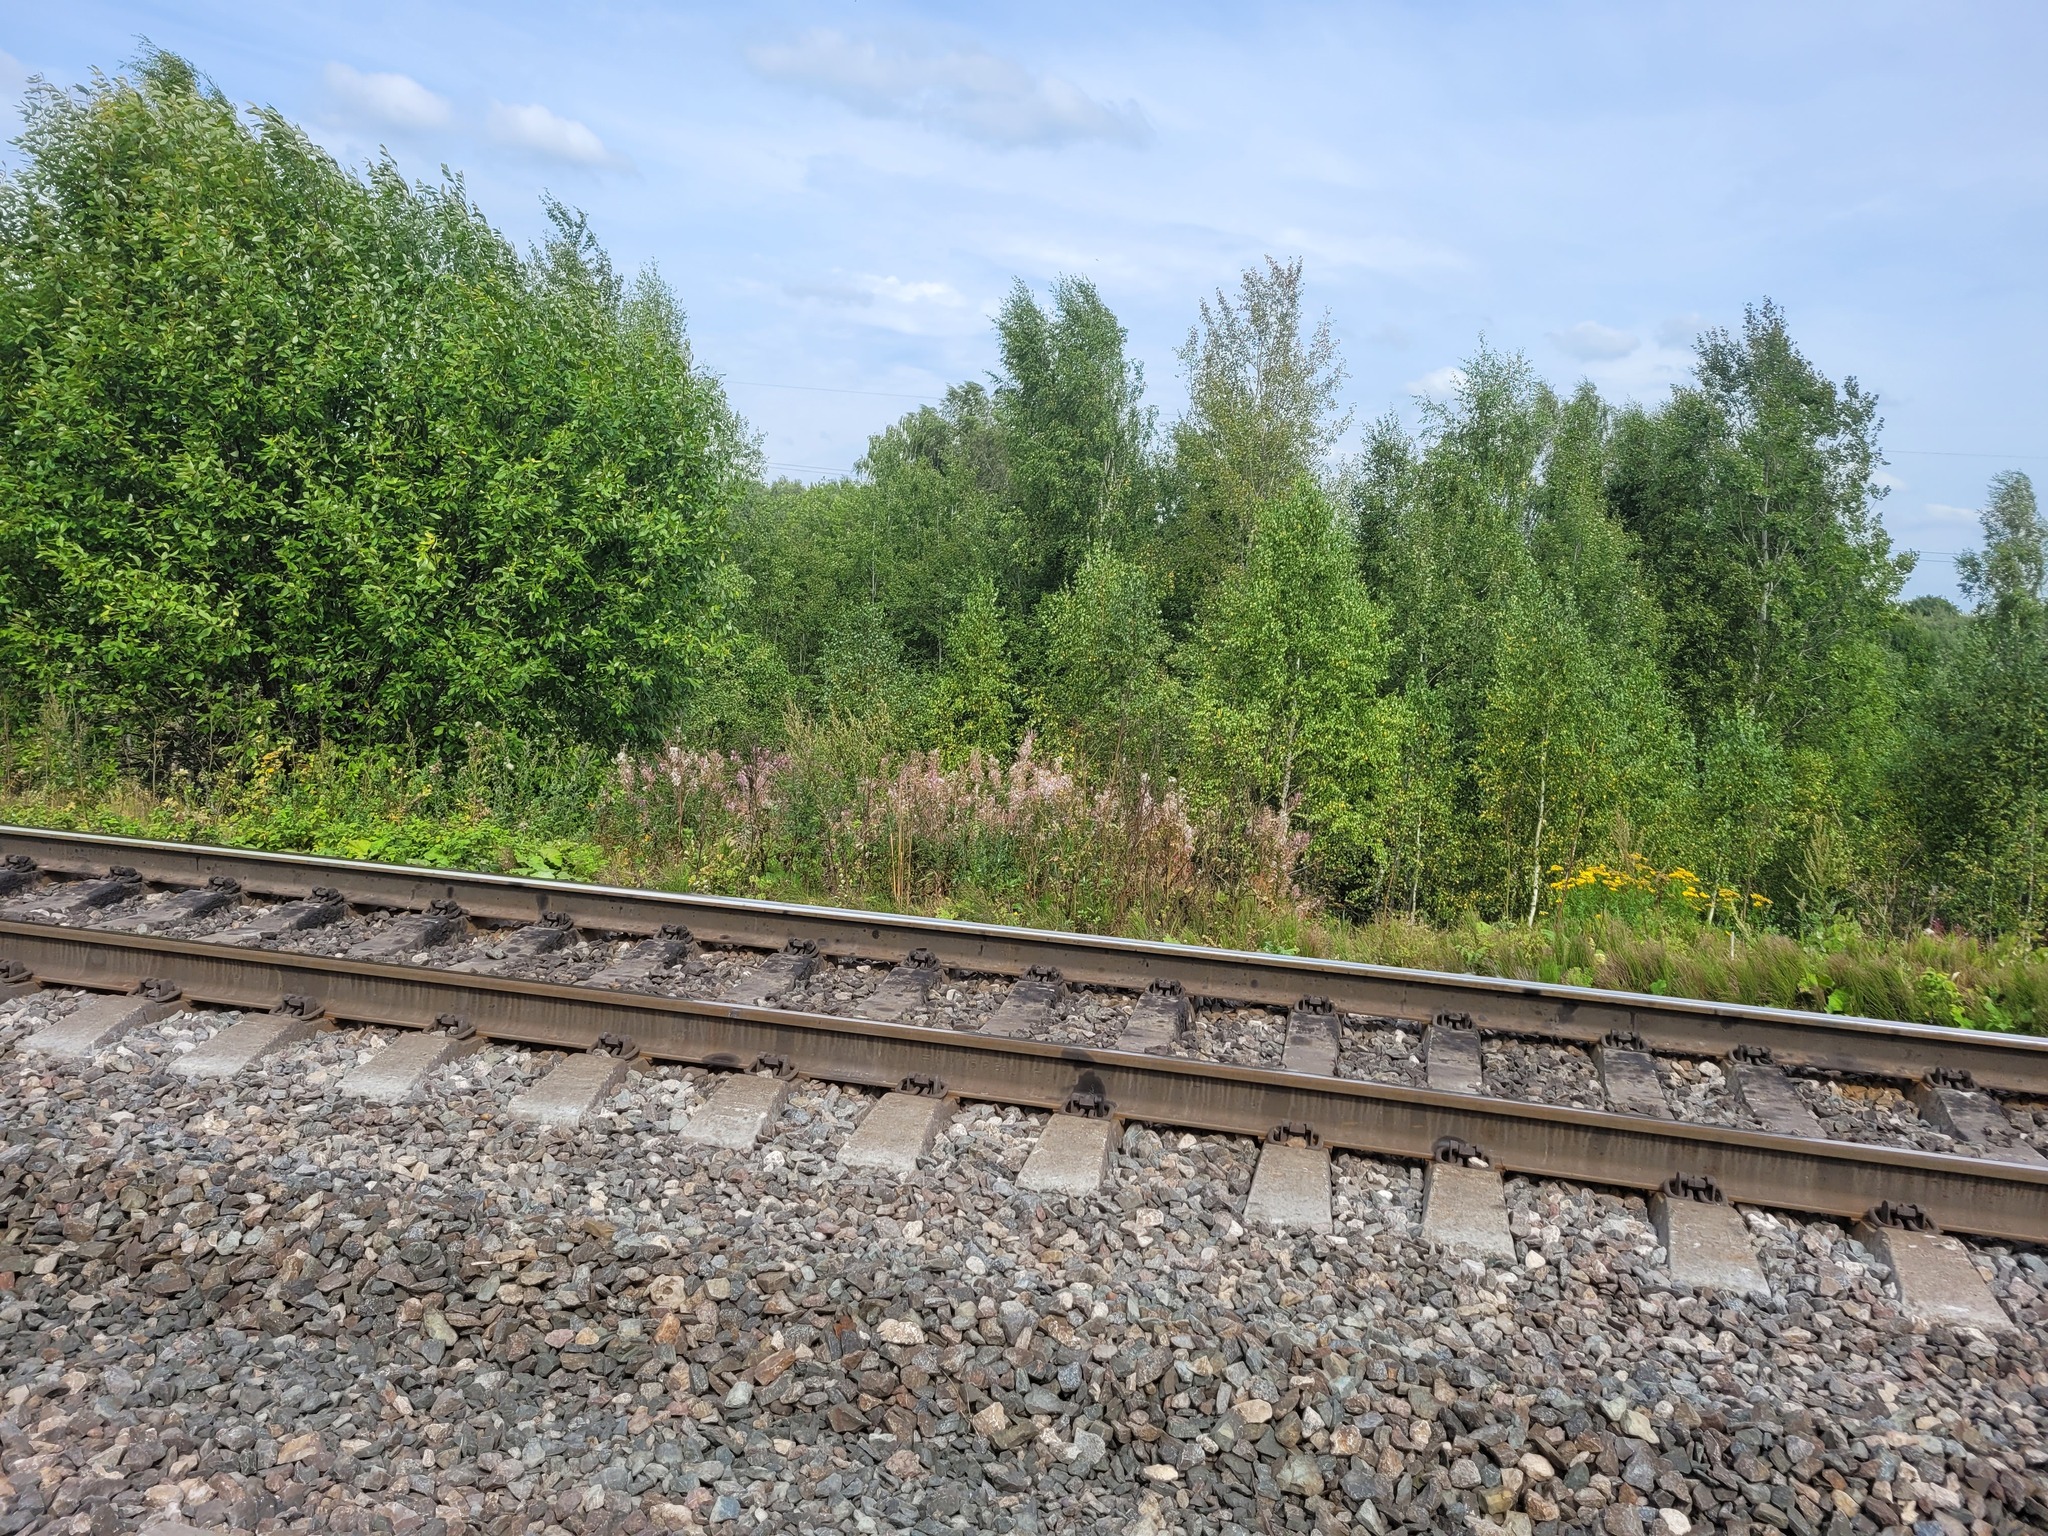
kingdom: Plantae
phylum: Tracheophyta
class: Magnoliopsida
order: Myrtales
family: Onagraceae
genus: Chamaenerion
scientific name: Chamaenerion angustifolium
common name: Fireweed
